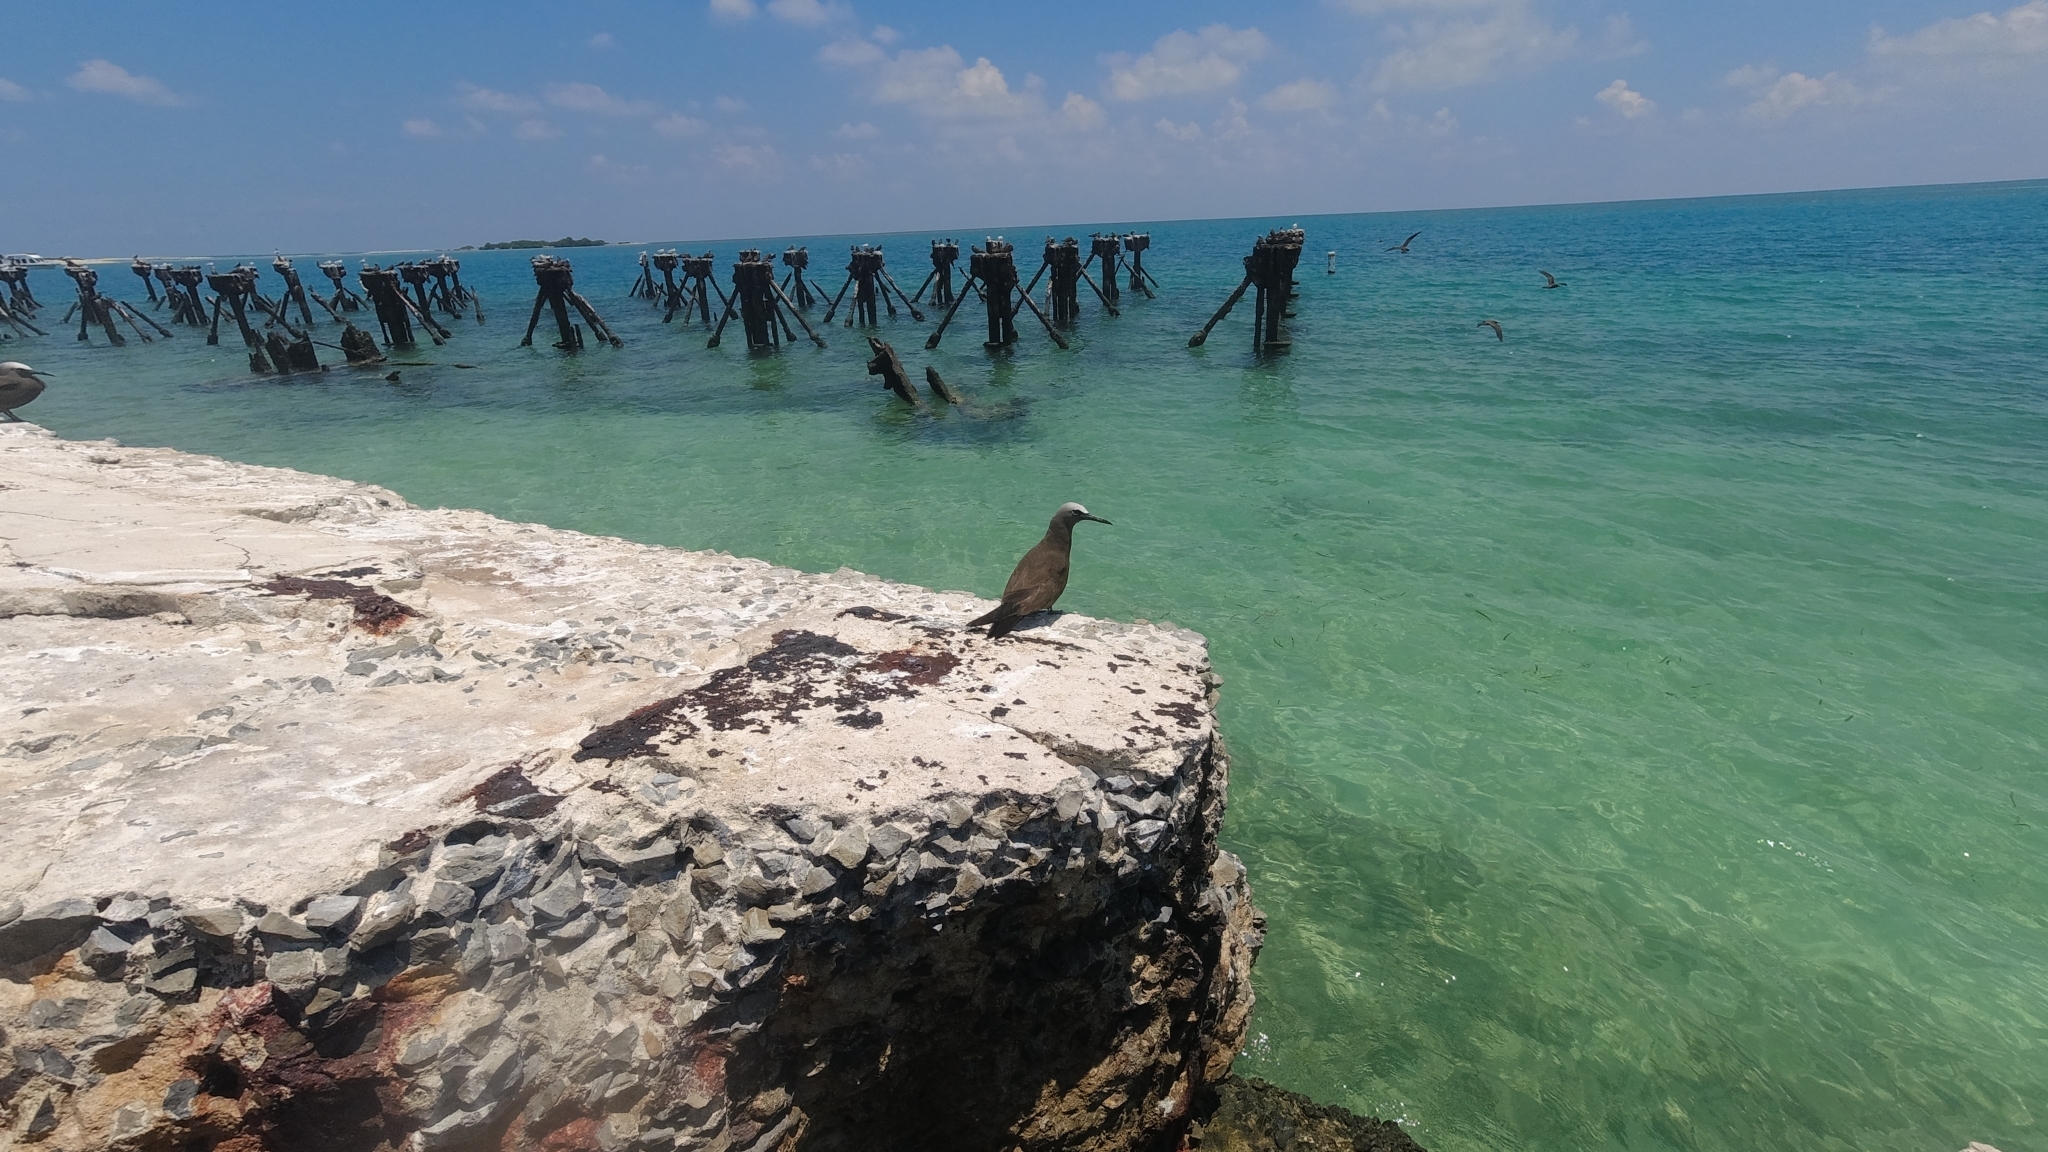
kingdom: Animalia
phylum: Chordata
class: Aves
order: Charadriiformes
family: Laridae
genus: Anous
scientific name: Anous stolidus
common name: Brown noddy
